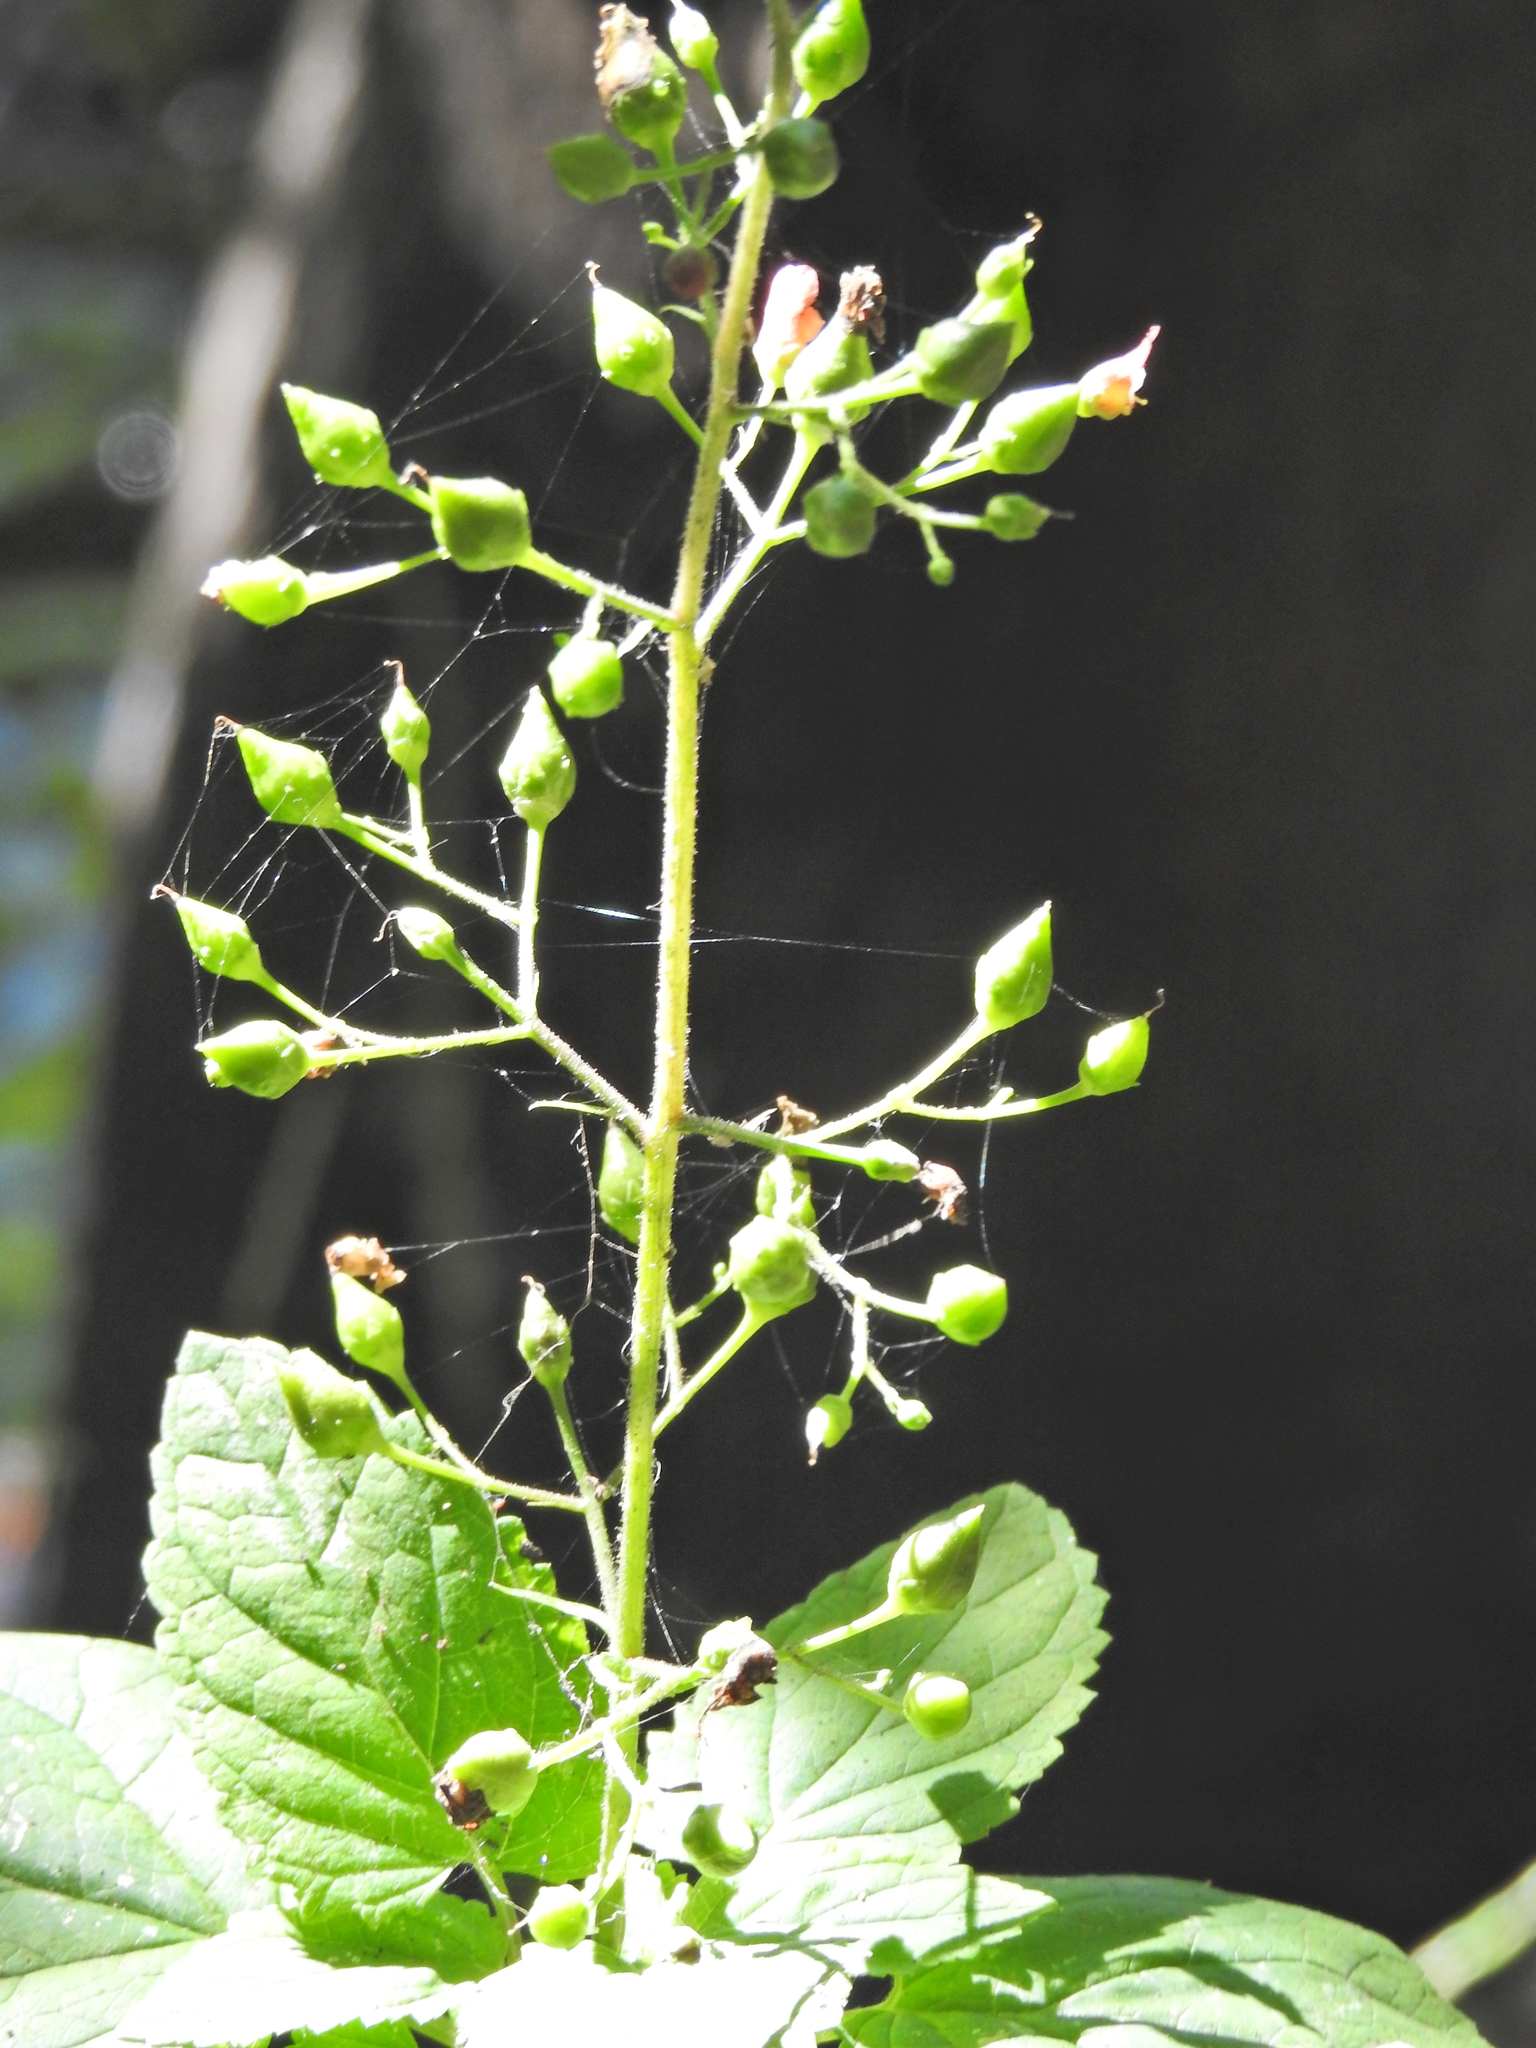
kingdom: Plantae
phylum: Tracheophyta
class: Magnoliopsida
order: Lamiales
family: Scrophulariaceae
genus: Scrophularia
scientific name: Scrophularia californica
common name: California figwort
